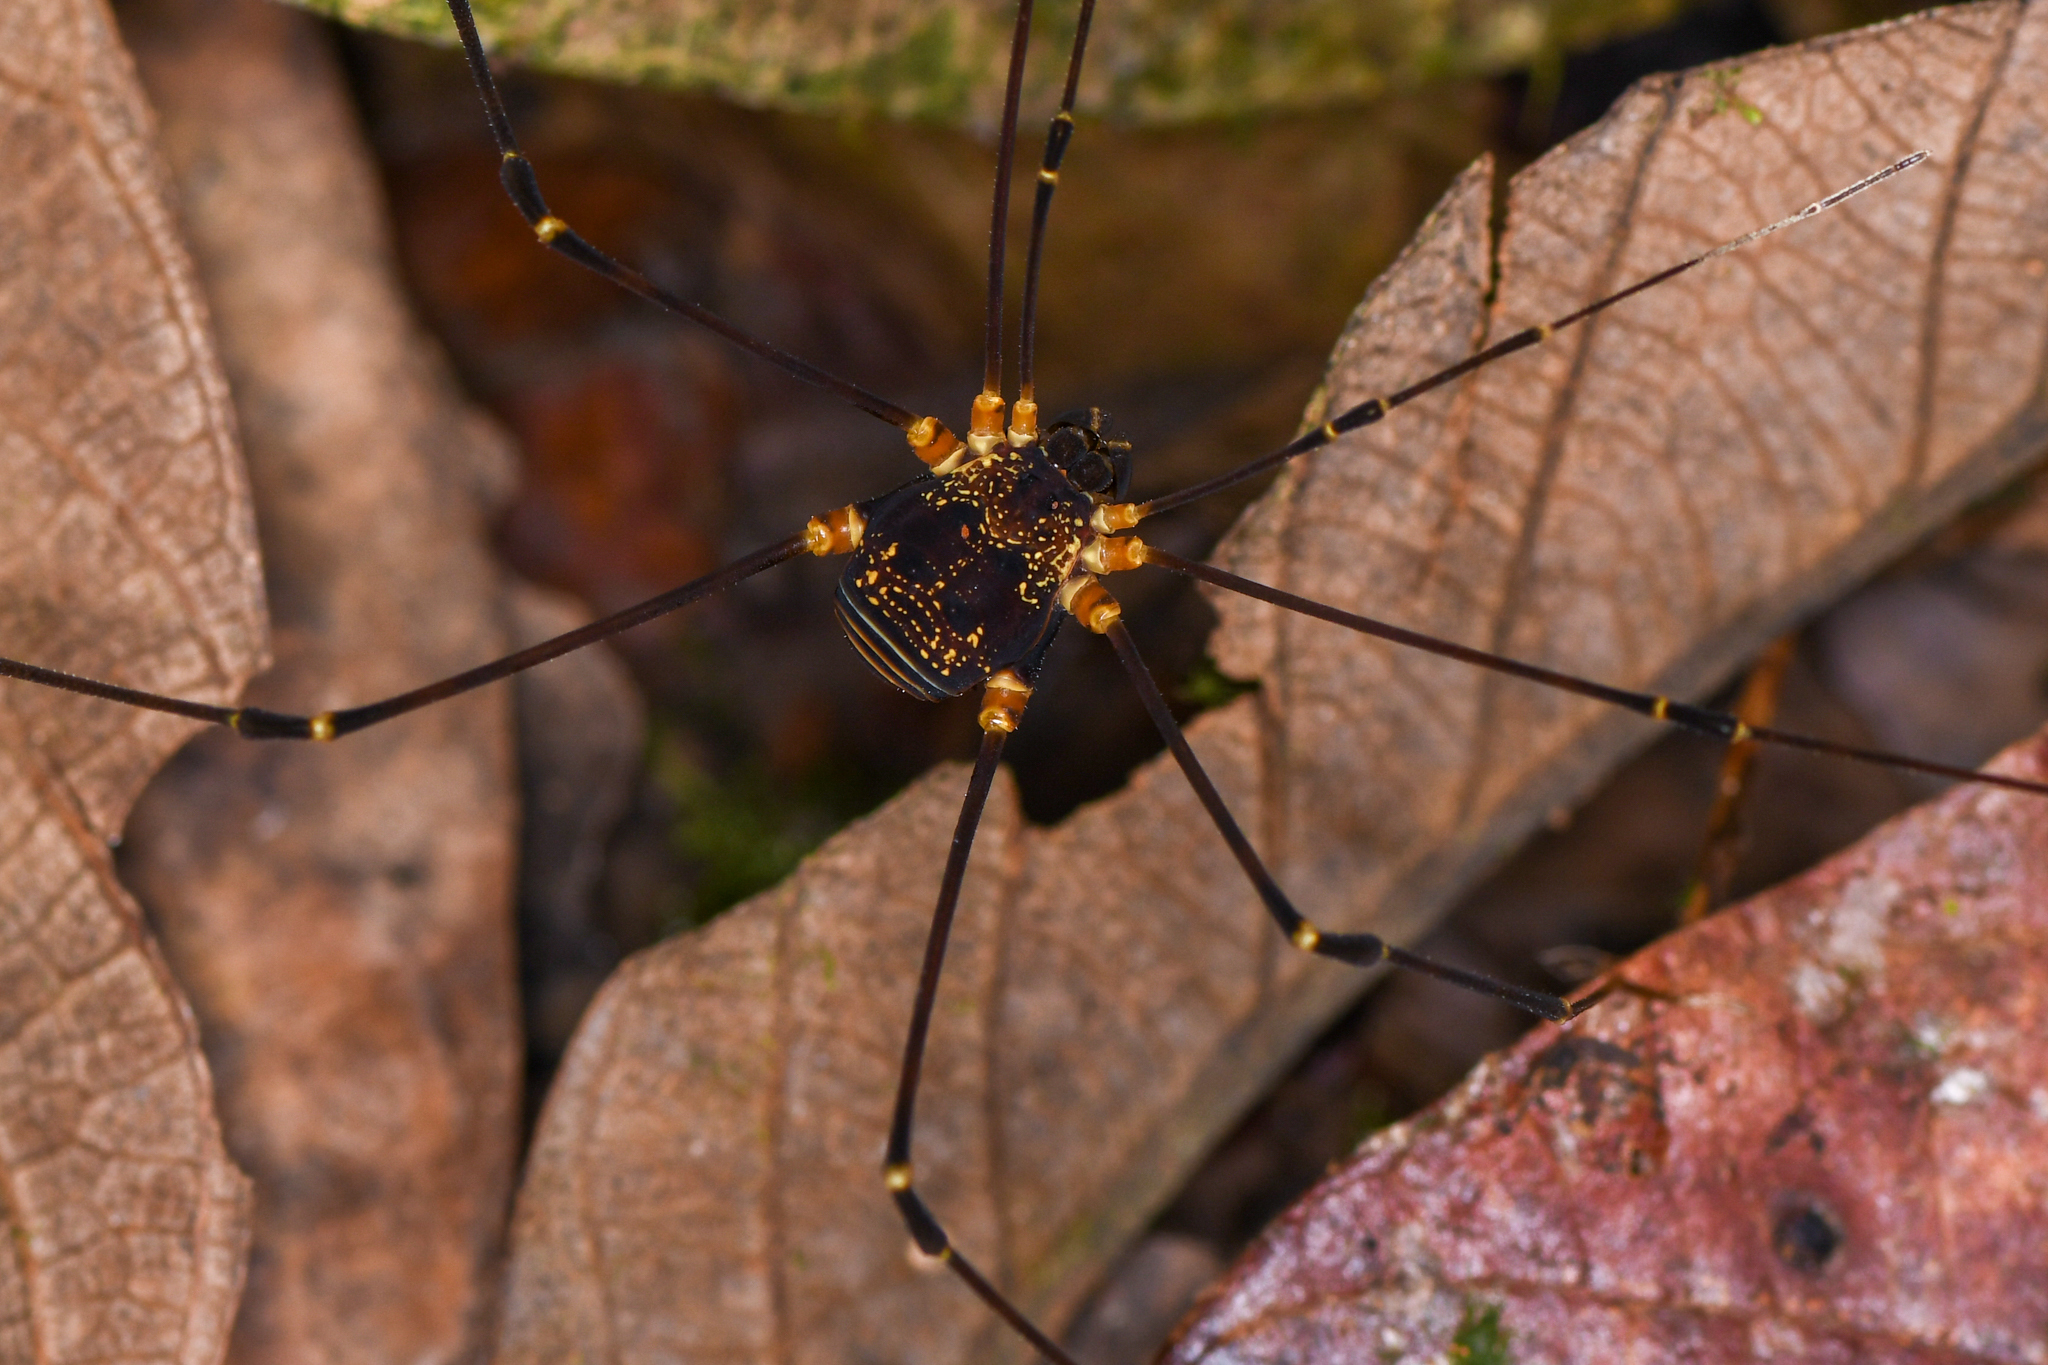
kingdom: Animalia
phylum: Arthropoda
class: Arachnida
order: Opiliones
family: Cosmetidae
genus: Eupoecilaema
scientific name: Eupoecilaema magnum
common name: Harvestmen
